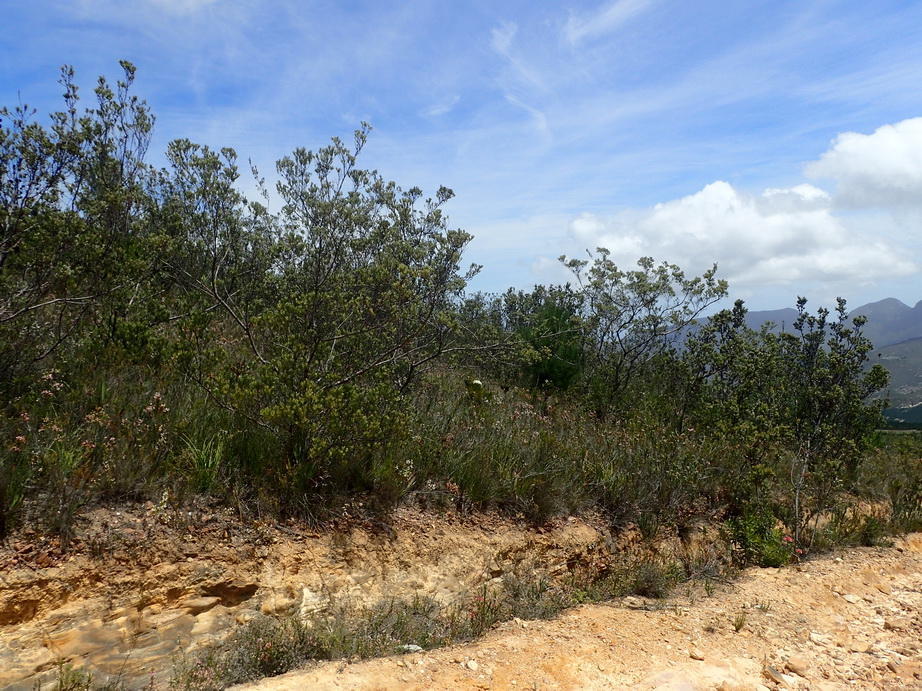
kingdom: Plantae
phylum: Tracheophyta
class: Magnoliopsida
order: Proteales
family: Proteaceae
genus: Leucadendron
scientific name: Leucadendron uliginosum
